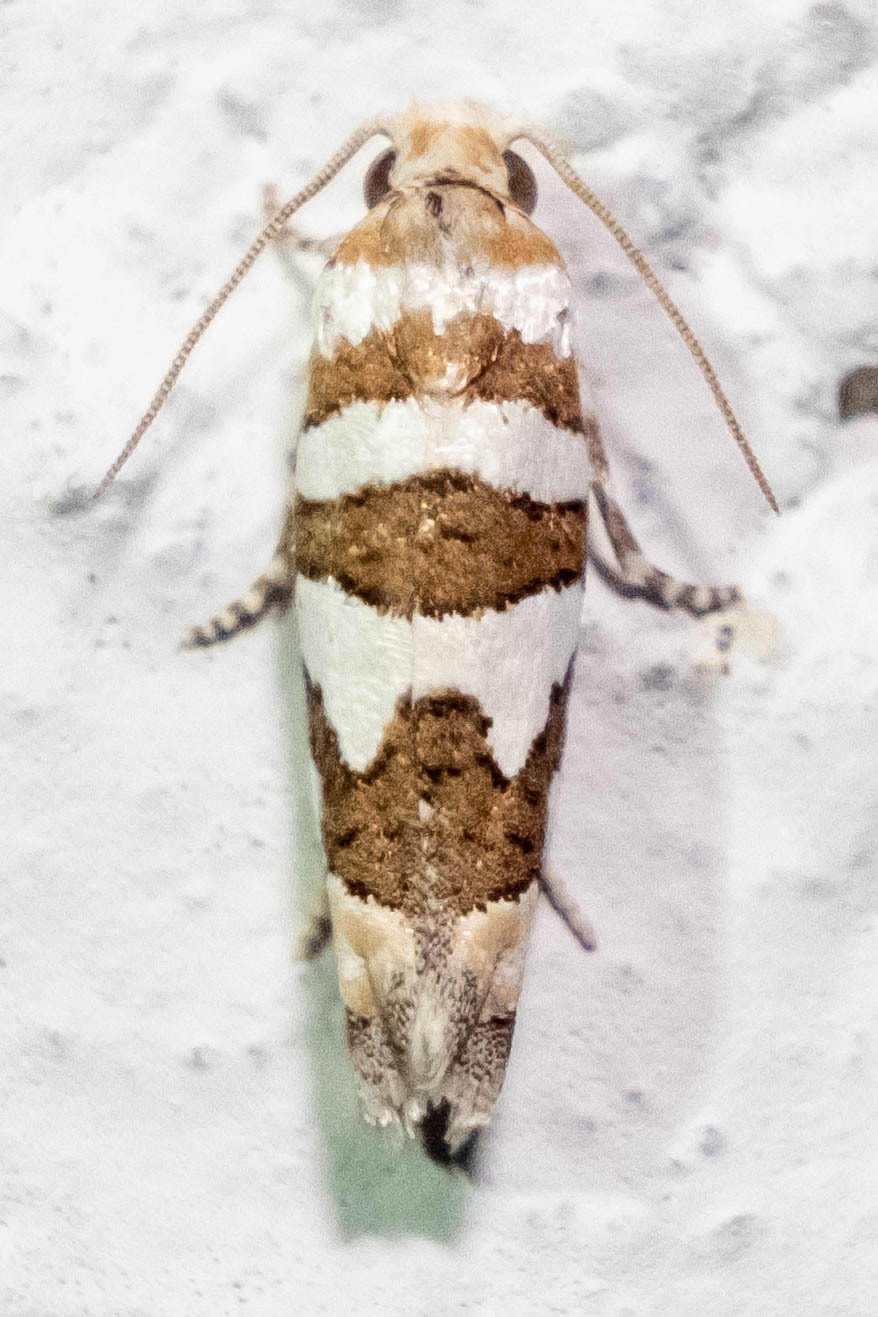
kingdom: Animalia
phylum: Arthropoda
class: Insecta
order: Lepidoptera
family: Tortricidae
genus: Pelochrista
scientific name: Pelochrista robinsonana
